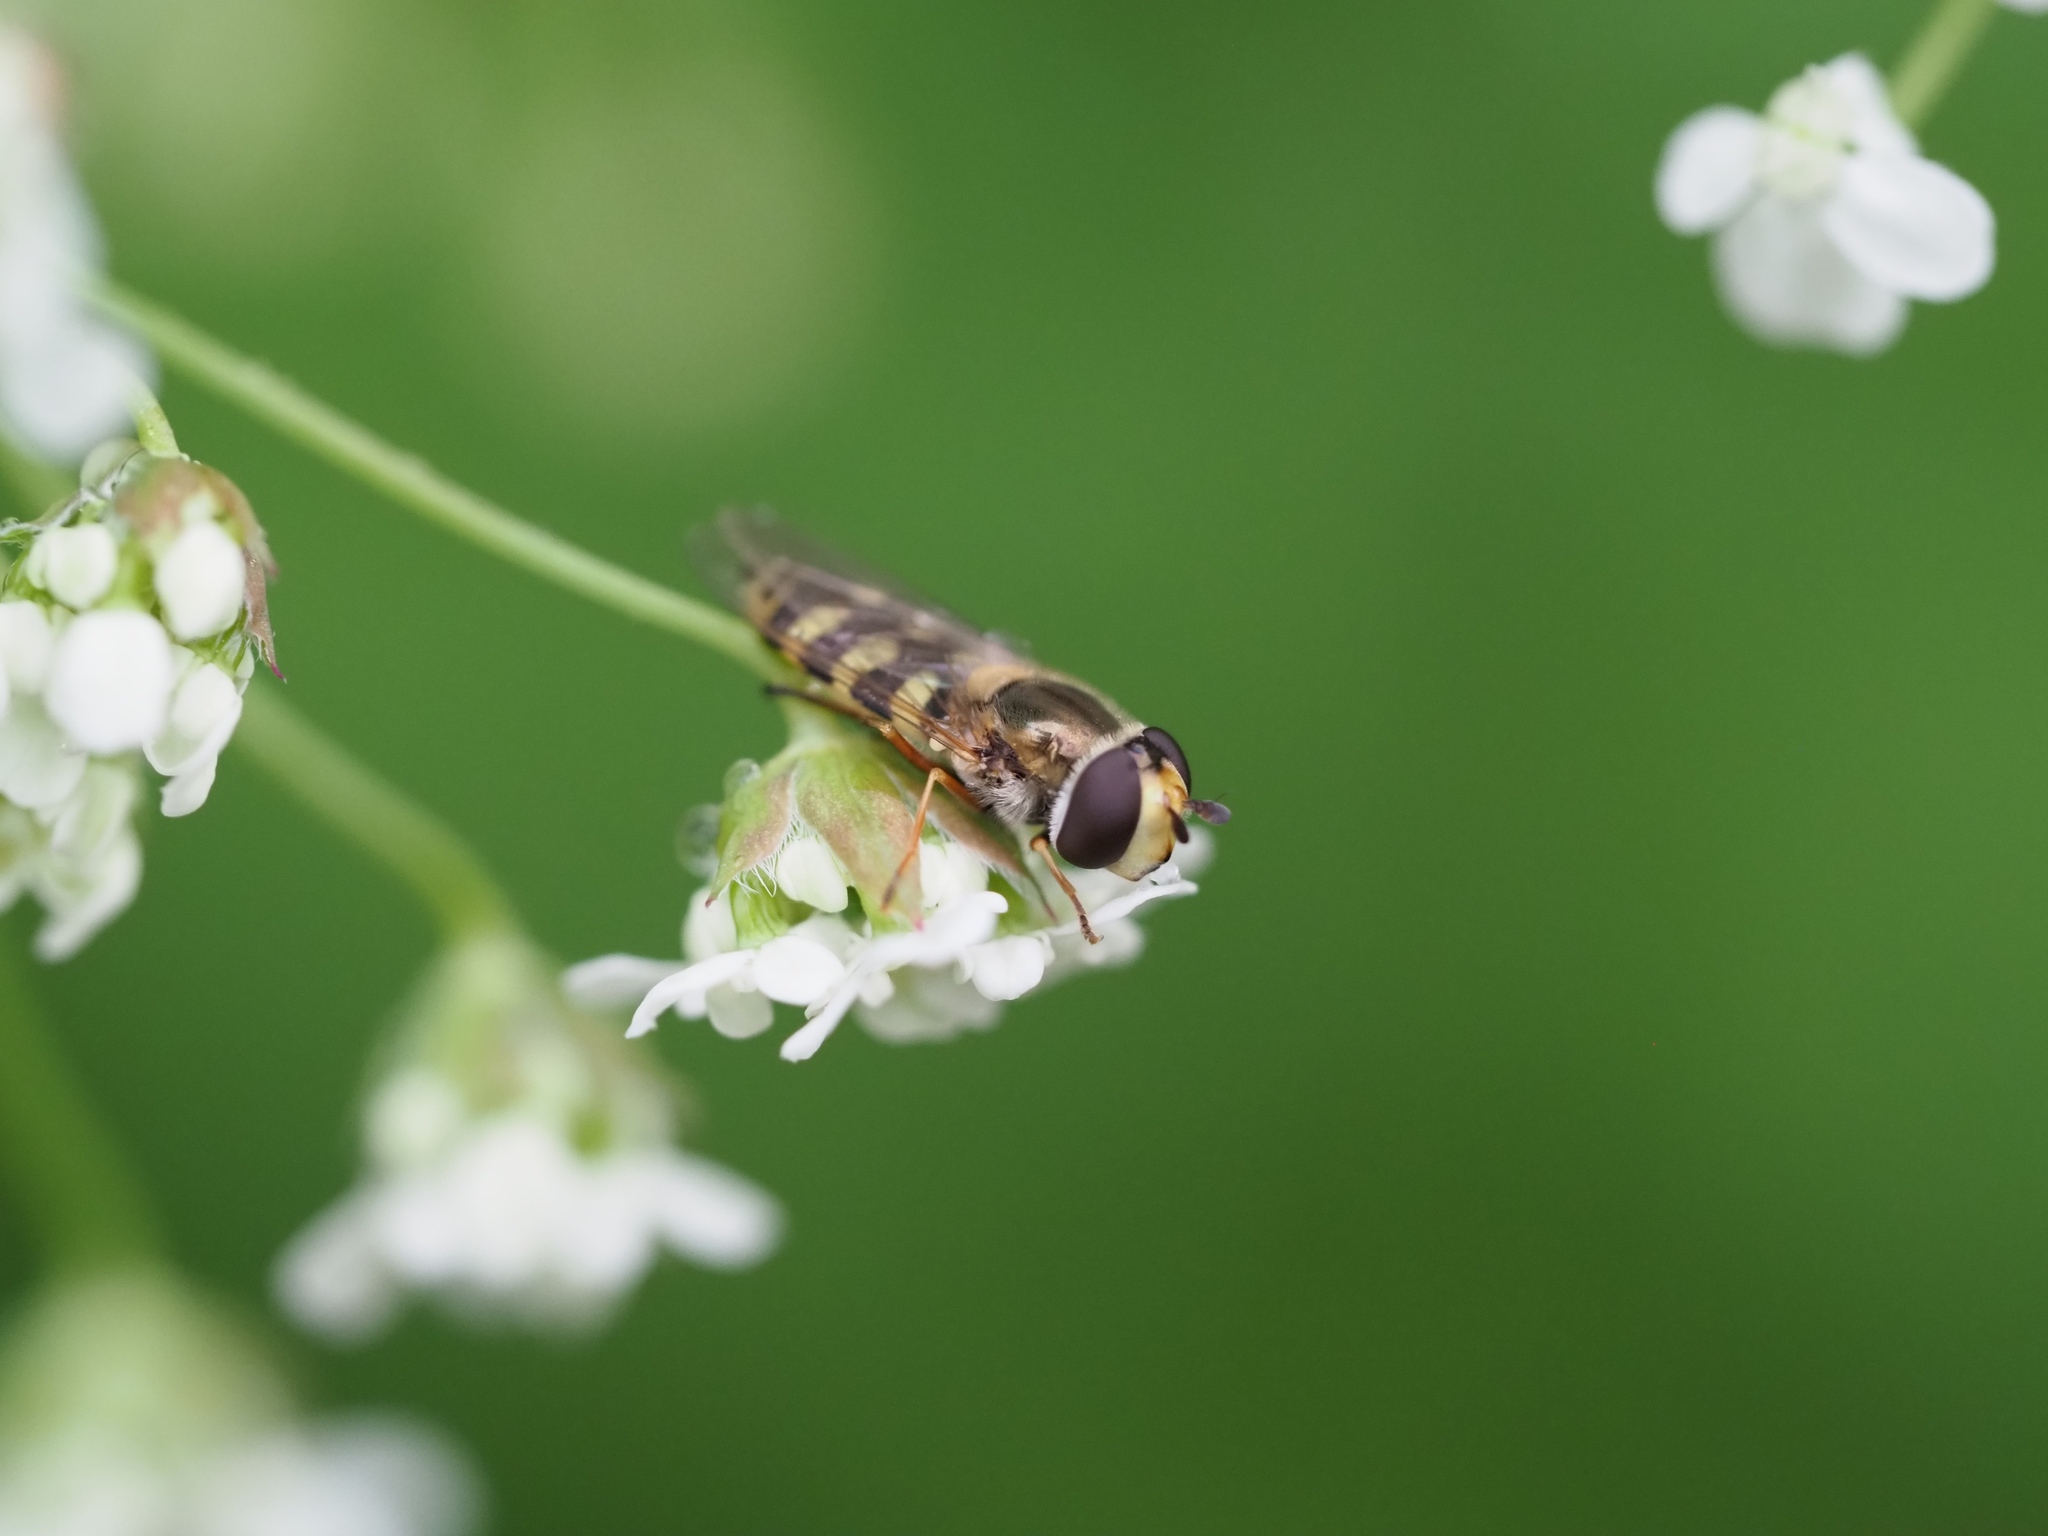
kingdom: Animalia
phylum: Arthropoda
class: Insecta
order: Diptera
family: Syrphidae
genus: Eupeodes
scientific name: Eupeodes corollae
